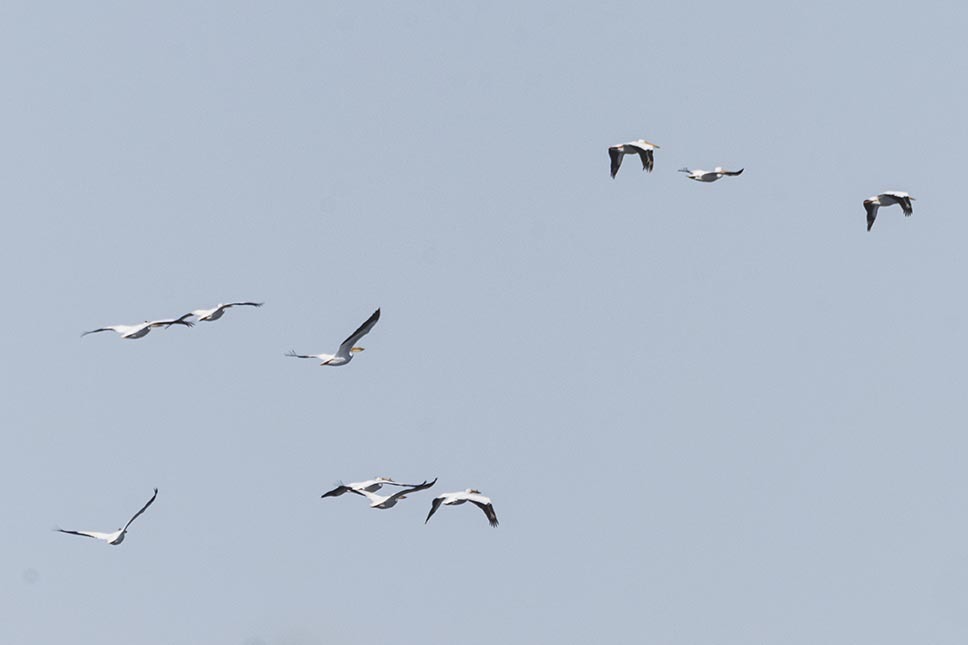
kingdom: Animalia
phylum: Chordata
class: Aves
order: Pelecaniformes
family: Pelecanidae
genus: Pelecanus
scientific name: Pelecanus erythrorhynchos
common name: American white pelican
